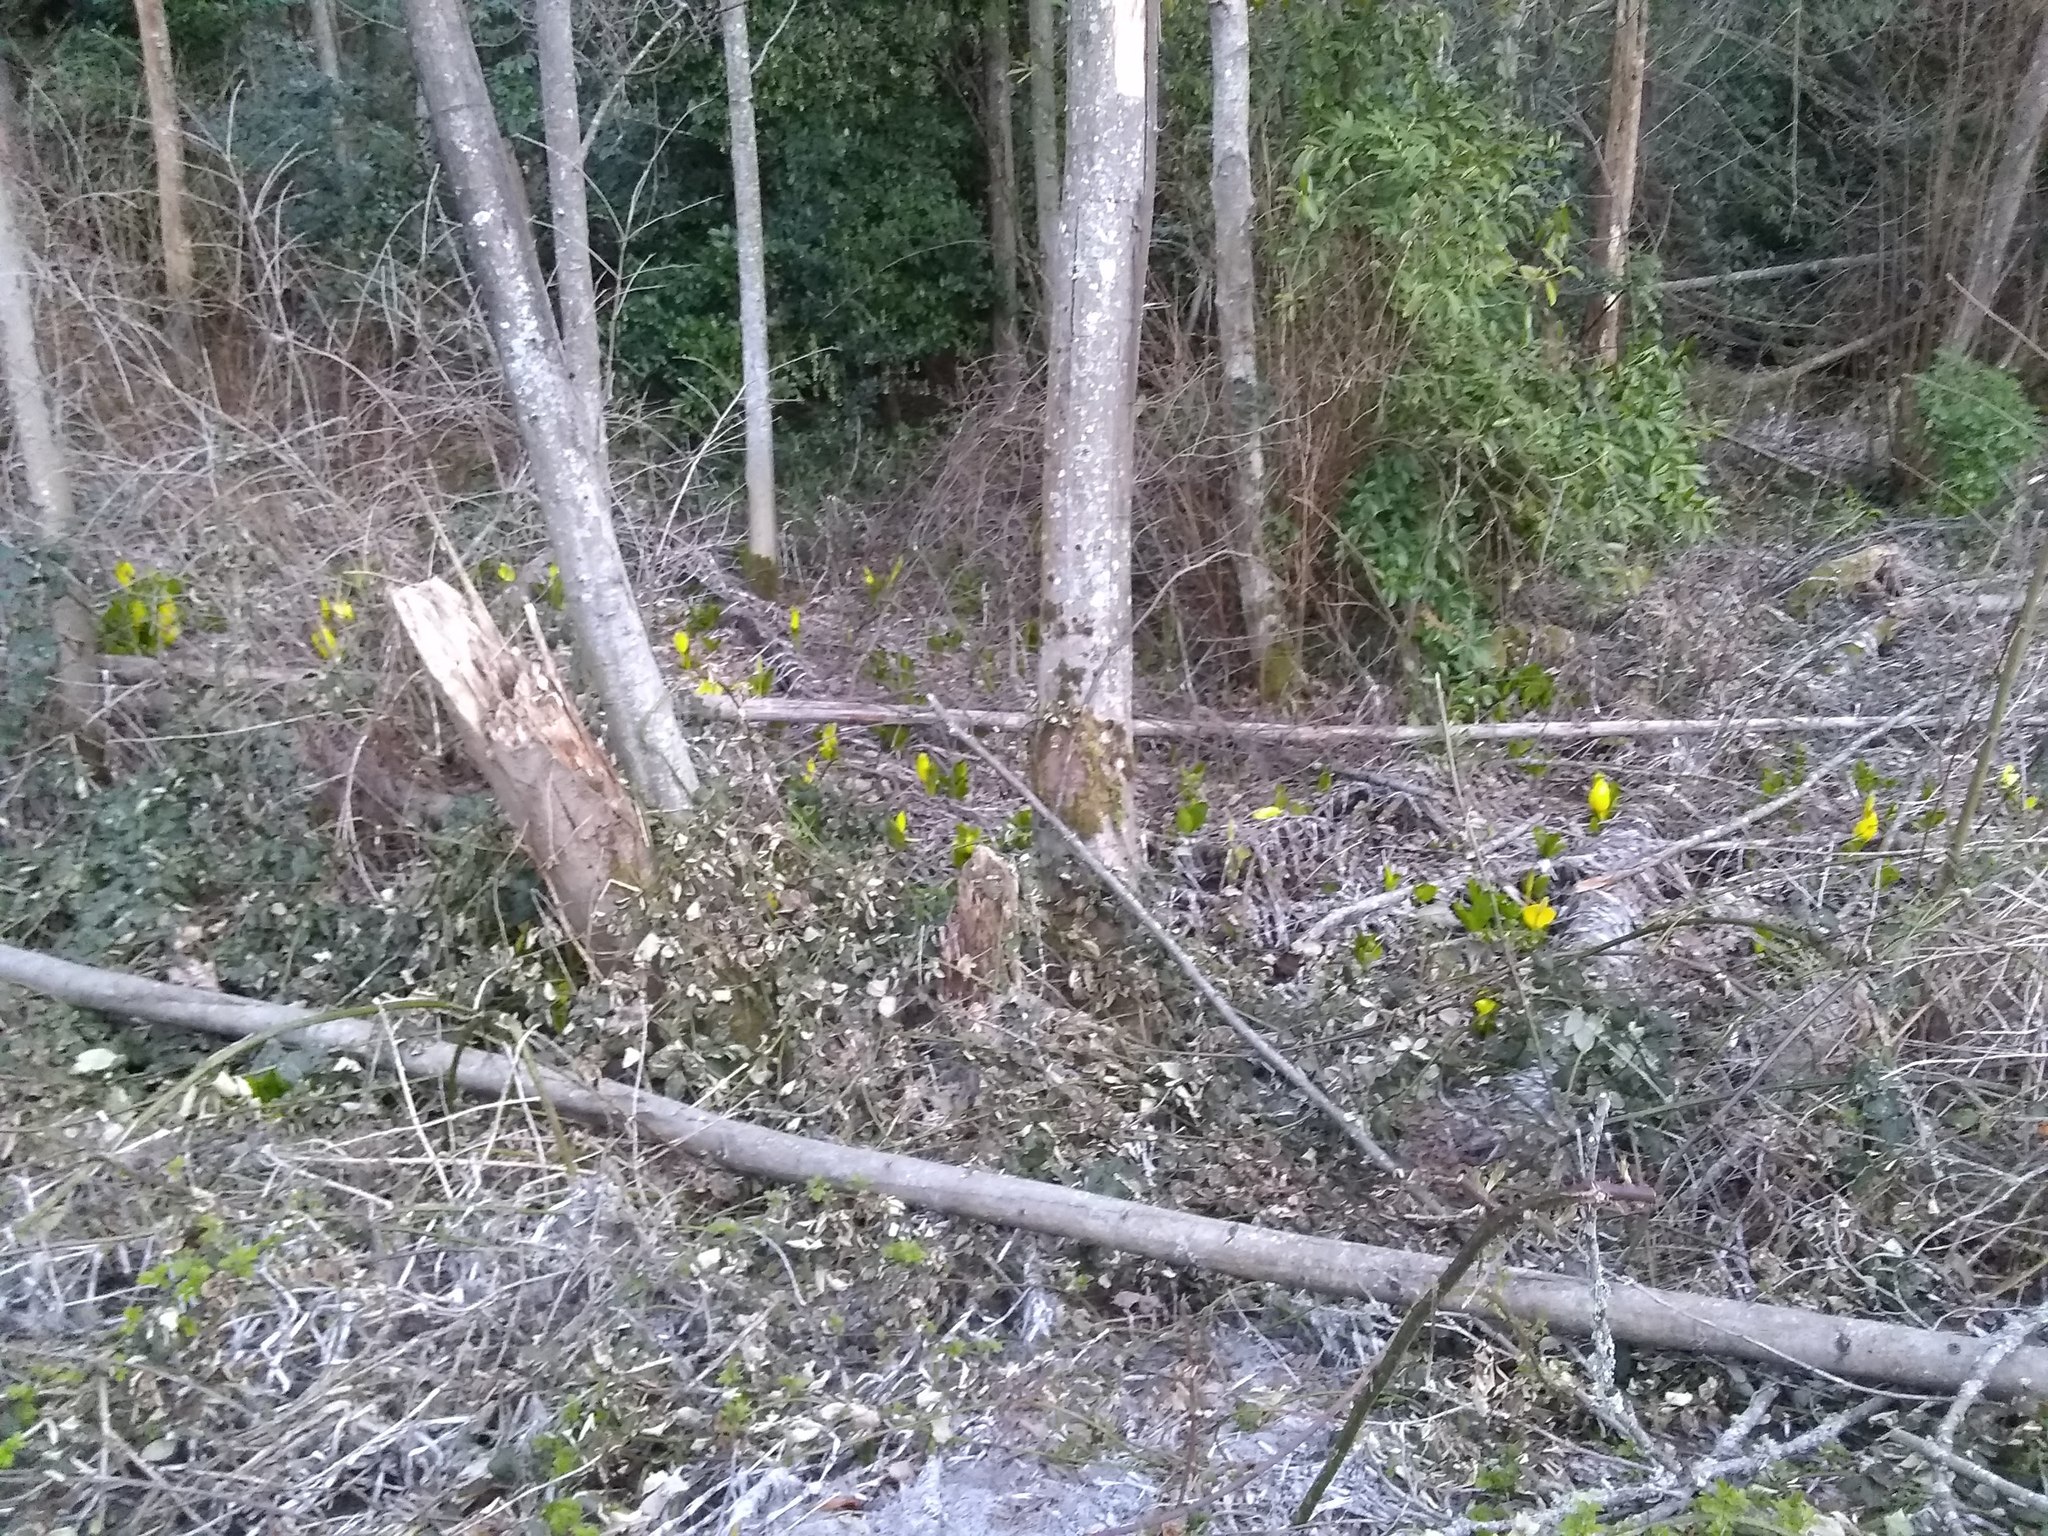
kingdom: Plantae
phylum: Tracheophyta
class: Liliopsida
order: Alismatales
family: Araceae
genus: Lysichiton
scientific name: Lysichiton americanus
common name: American skunk cabbage
